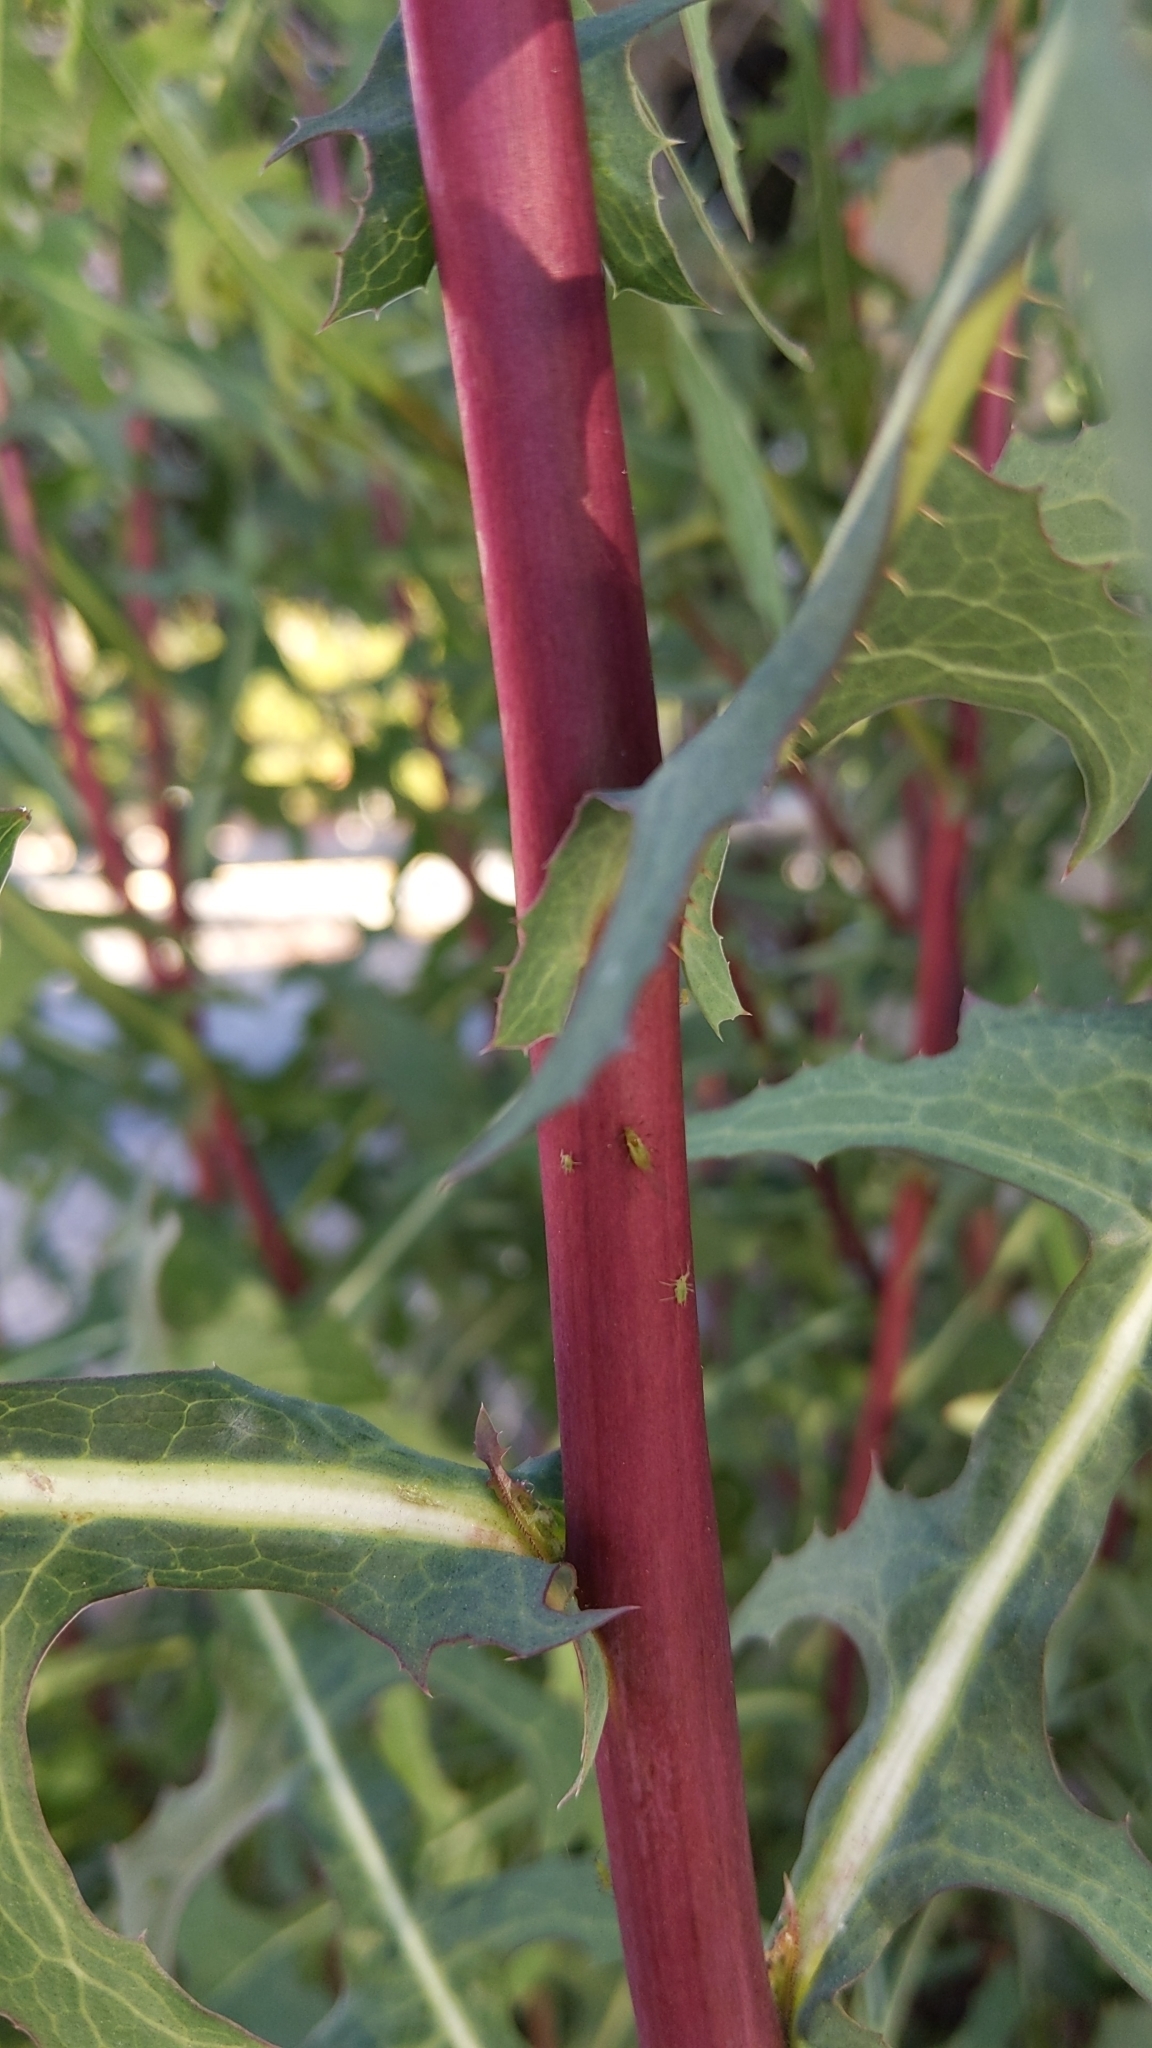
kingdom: Plantae
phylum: Tracheophyta
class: Magnoliopsida
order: Asterales
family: Asteraceae
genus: Lactuca
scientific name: Lactuca serriola
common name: Prickly lettuce
